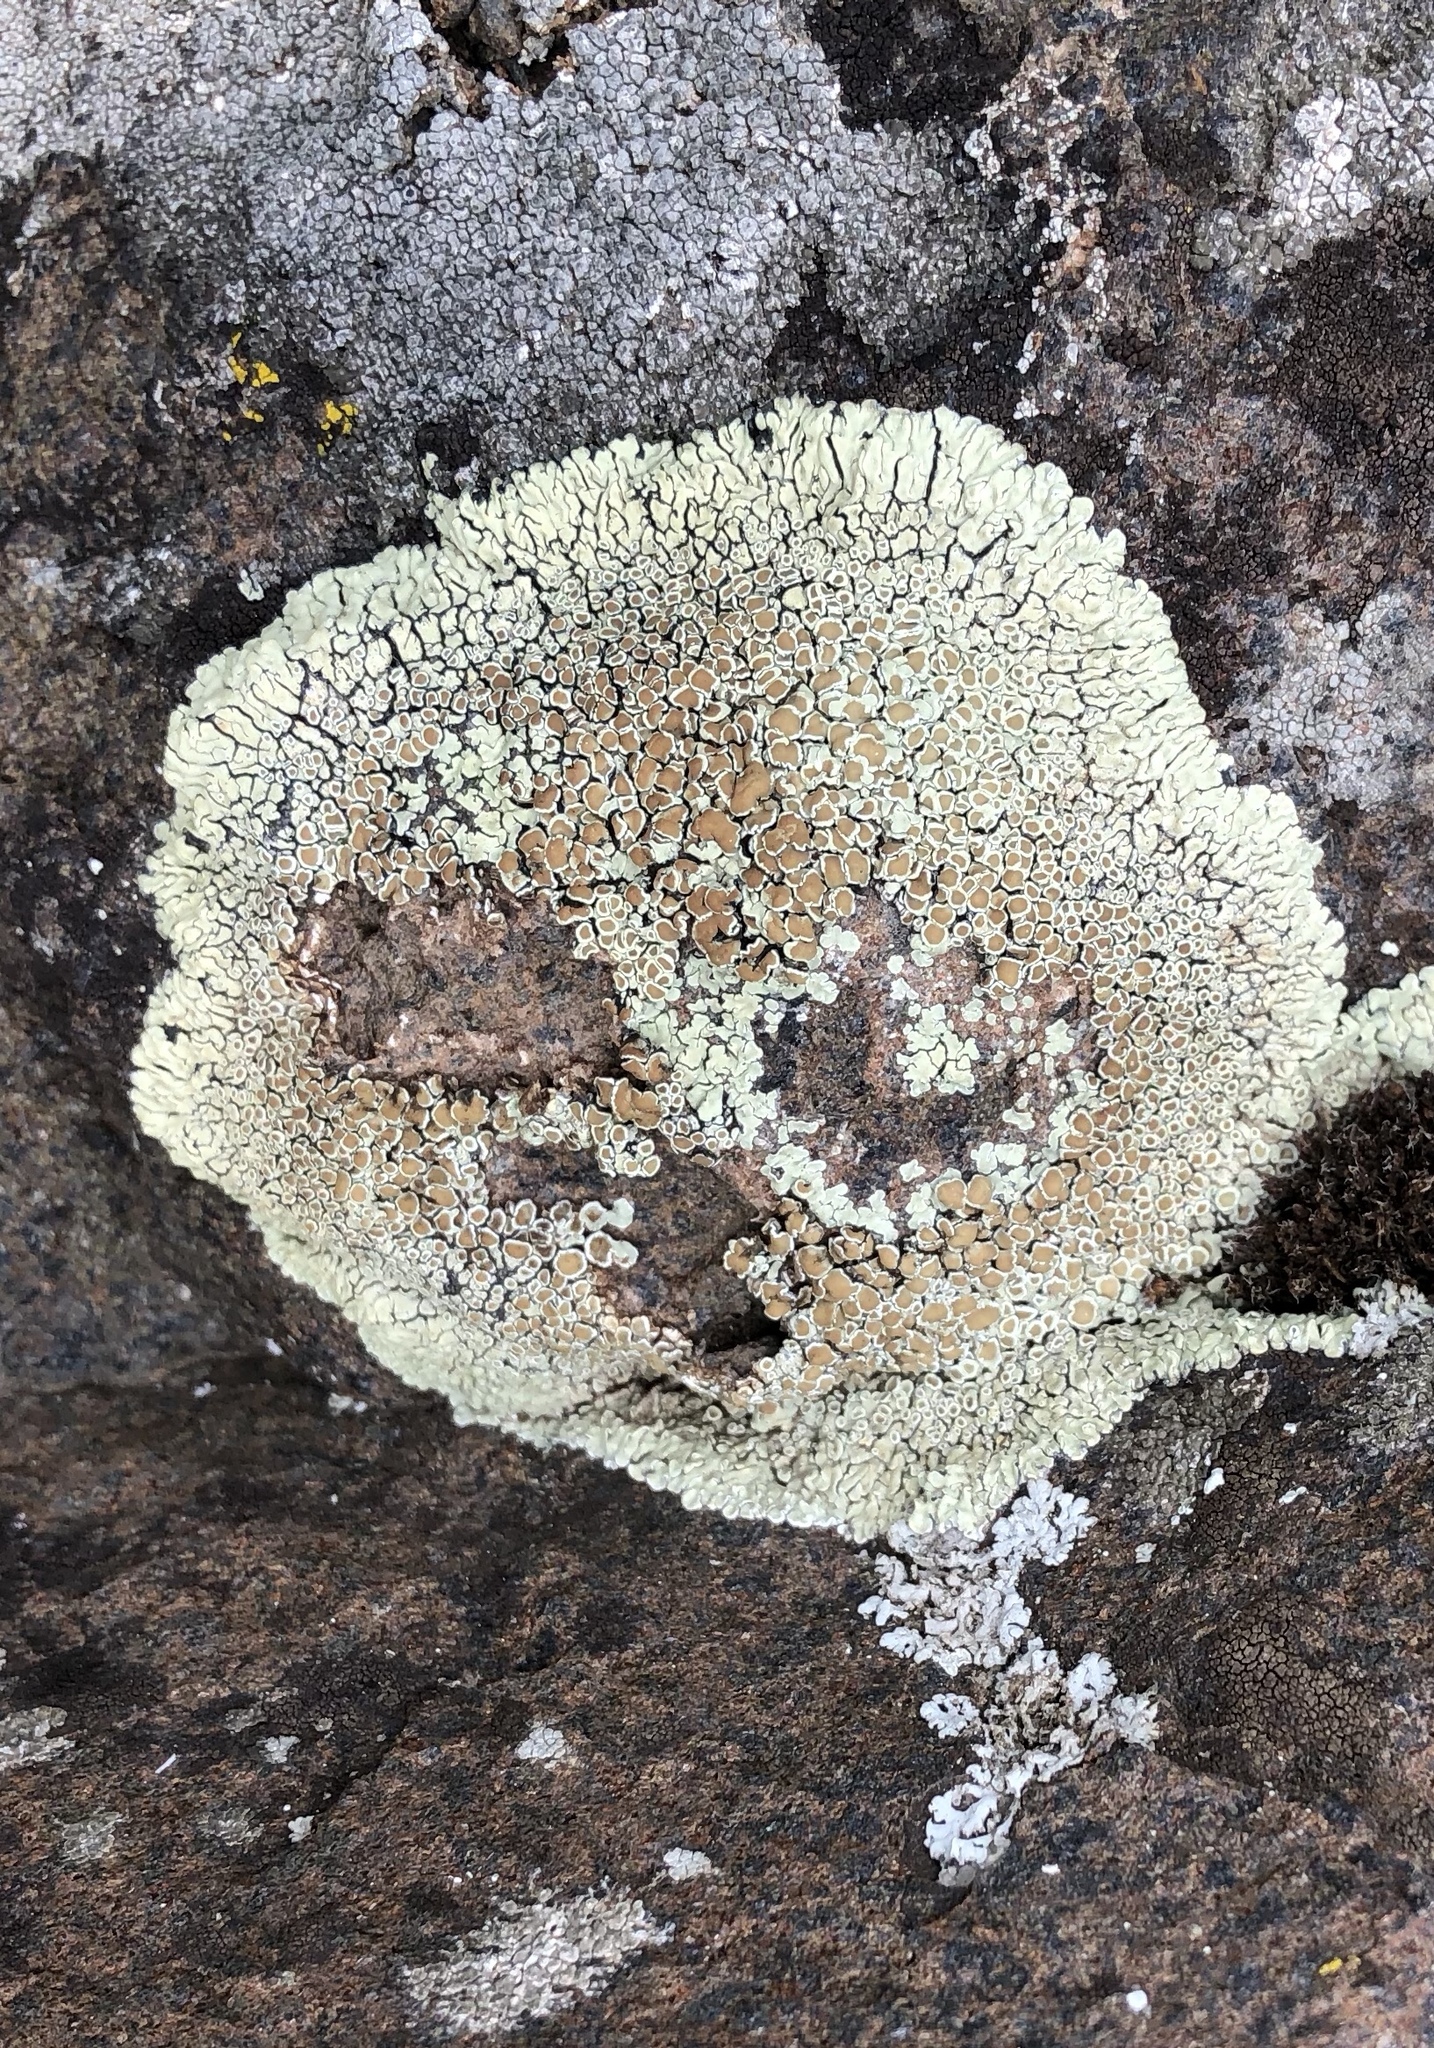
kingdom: Fungi
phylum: Ascomycota
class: Lecanoromycetes
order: Lecanorales
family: Lecanoraceae
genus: Protoparmeliopsis
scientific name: Protoparmeliopsis muralis
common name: Stonewall rim lichen
